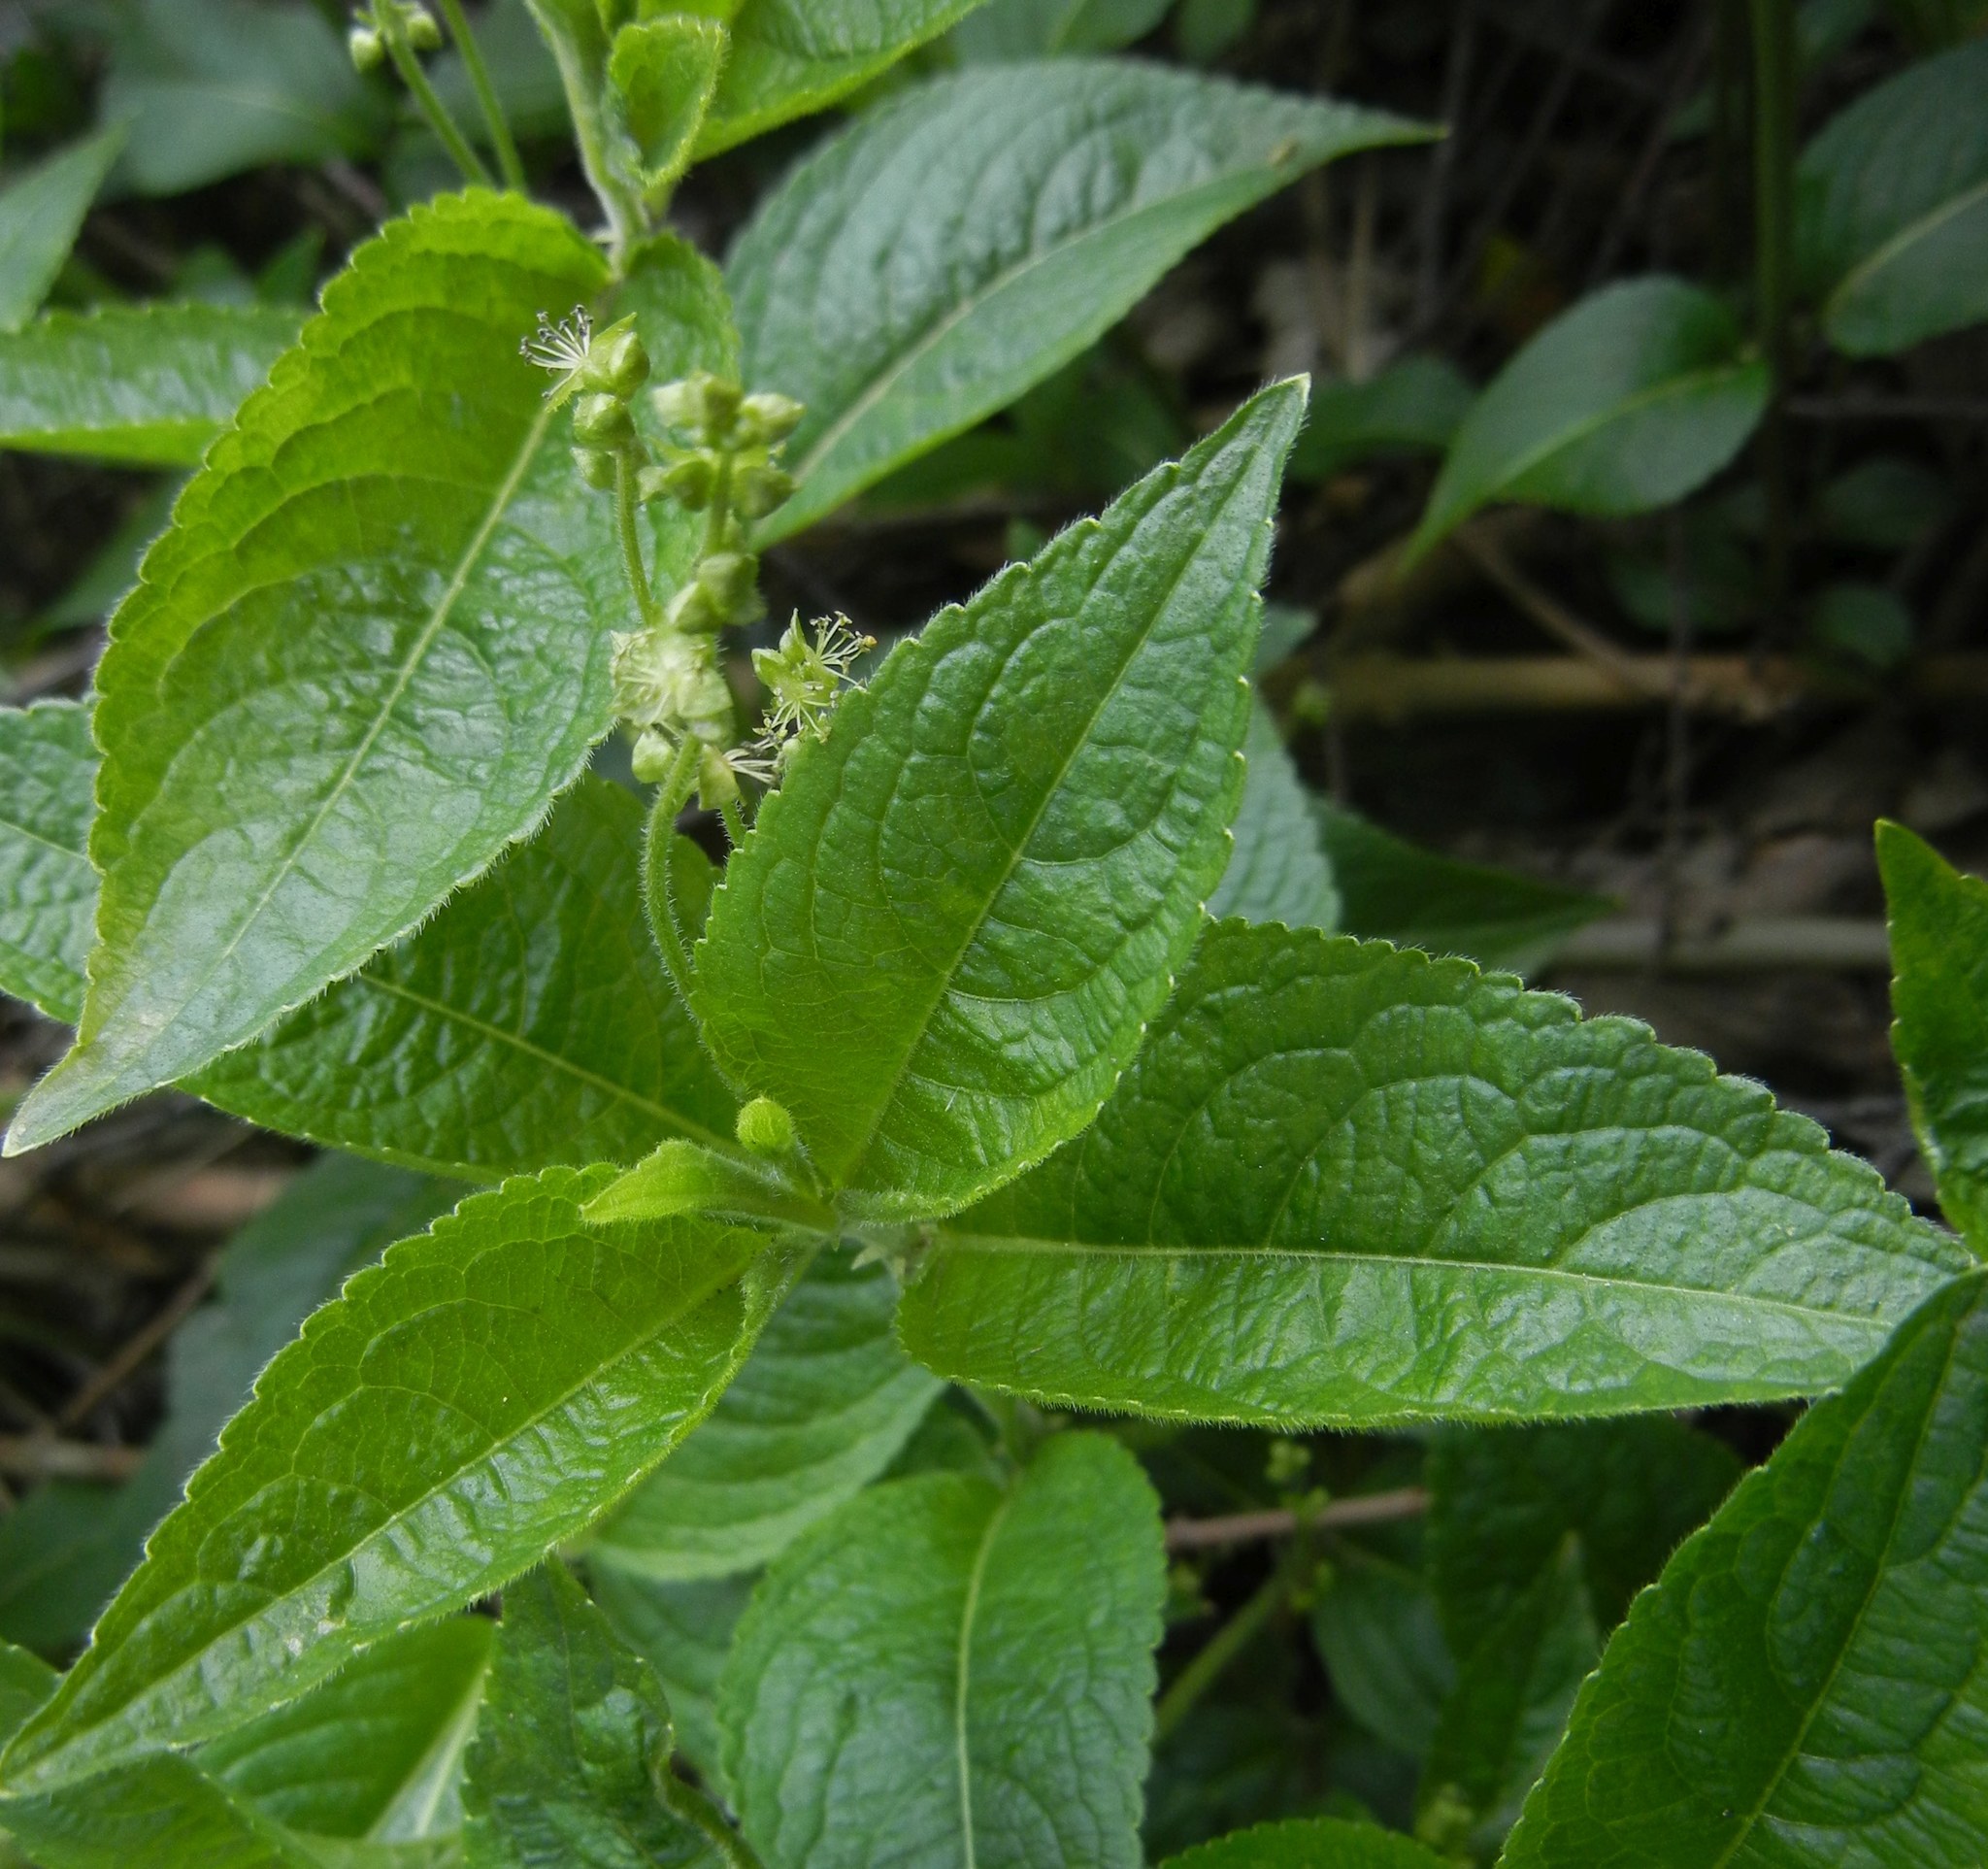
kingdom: Plantae
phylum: Tracheophyta
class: Magnoliopsida
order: Malpighiales
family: Euphorbiaceae
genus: Mercurialis
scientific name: Mercurialis perennis
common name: Dog mercury
